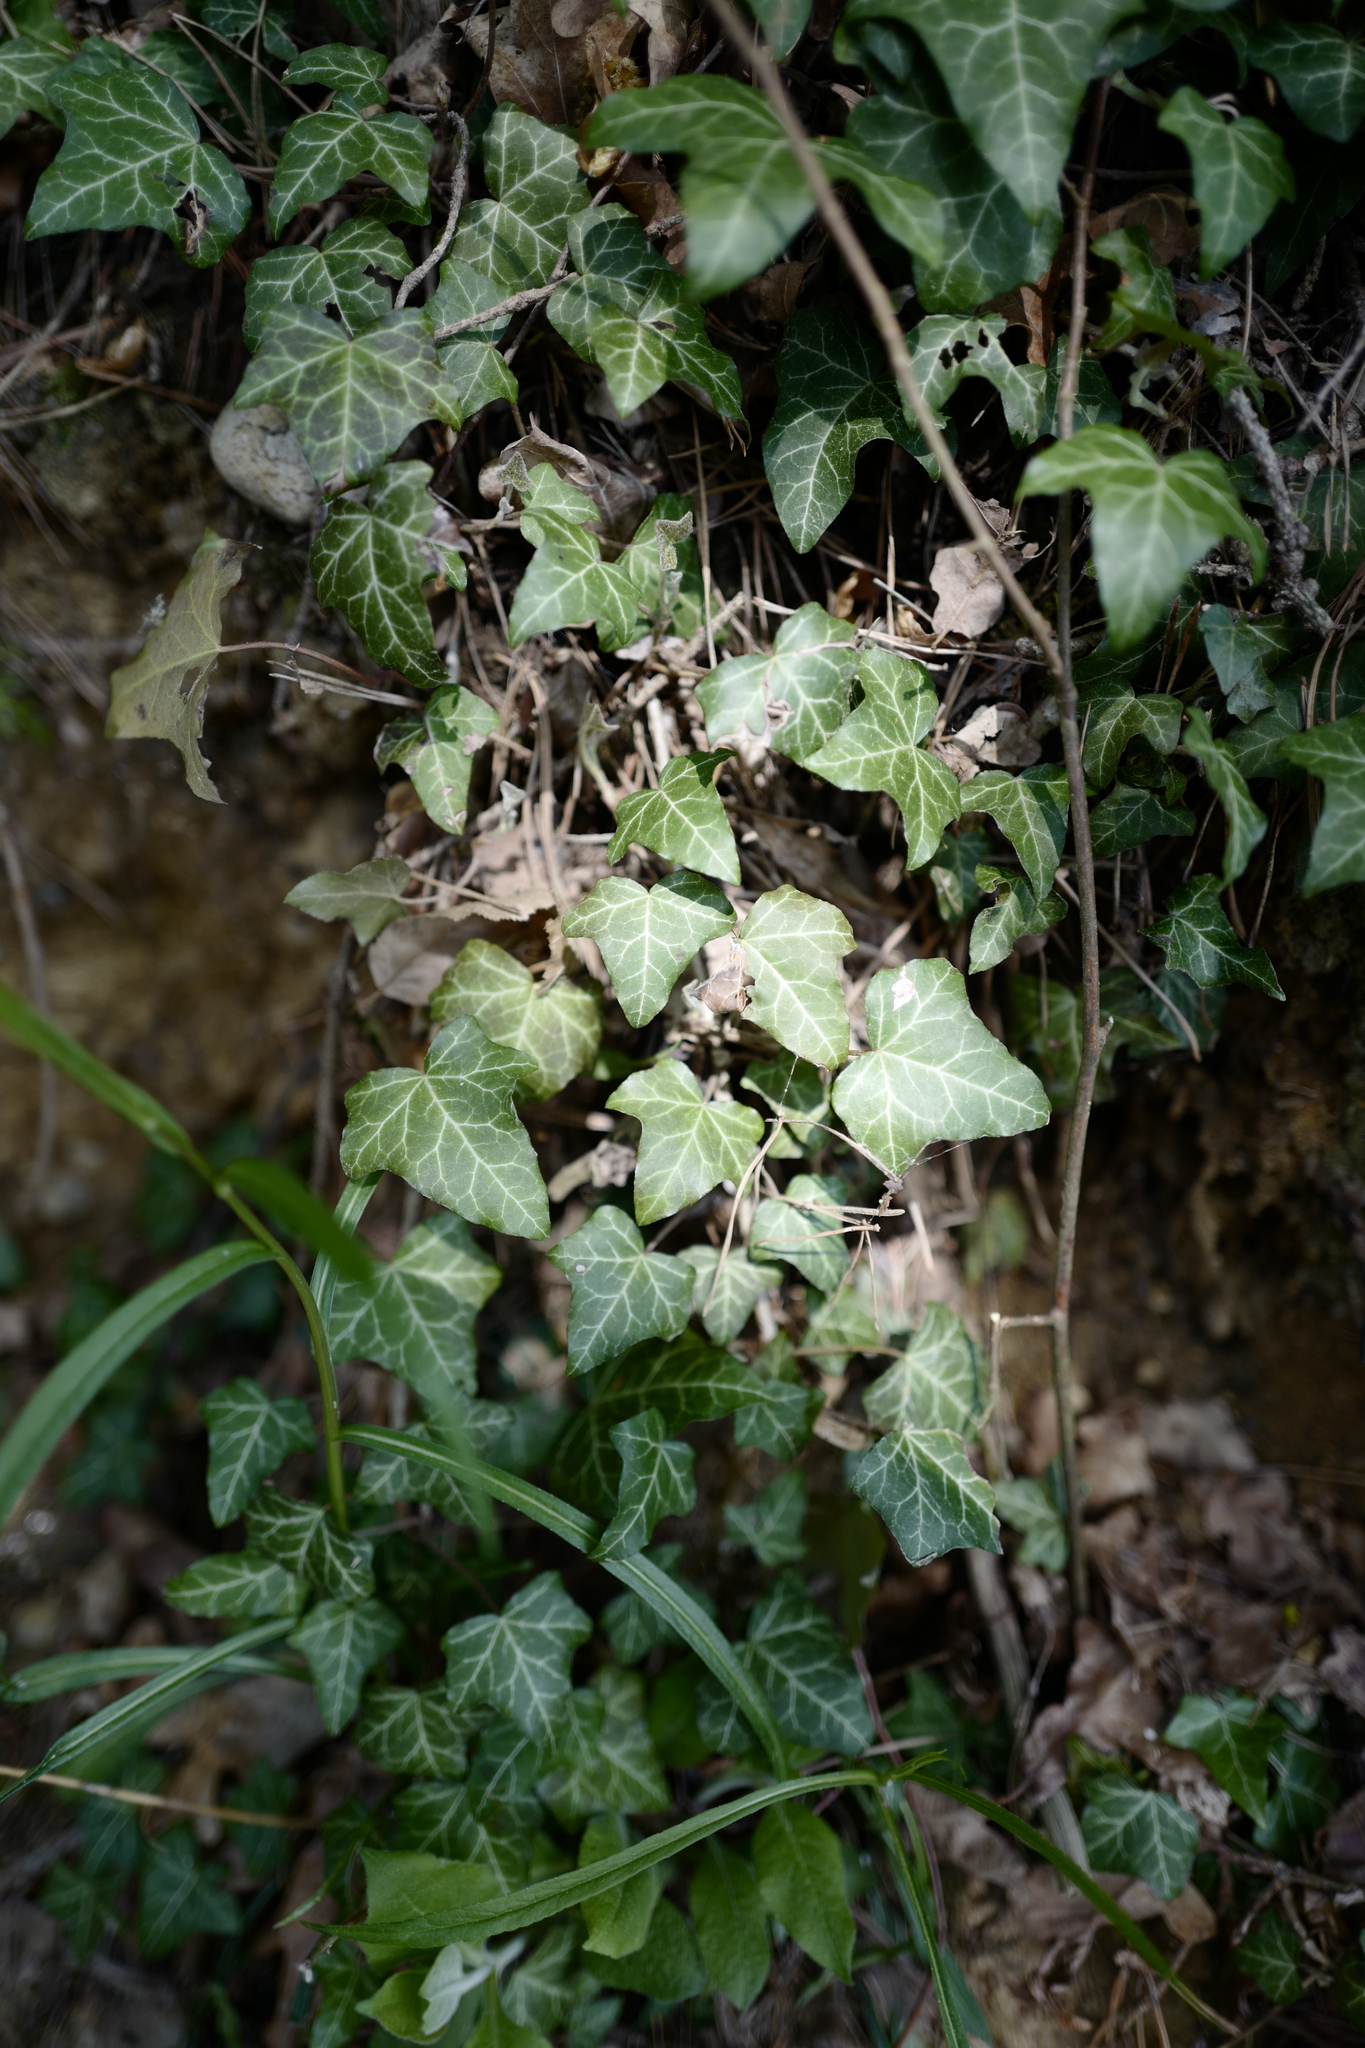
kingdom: Plantae
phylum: Tracheophyta
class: Magnoliopsida
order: Apiales
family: Araliaceae
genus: Hedera
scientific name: Hedera helix
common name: Ivy
